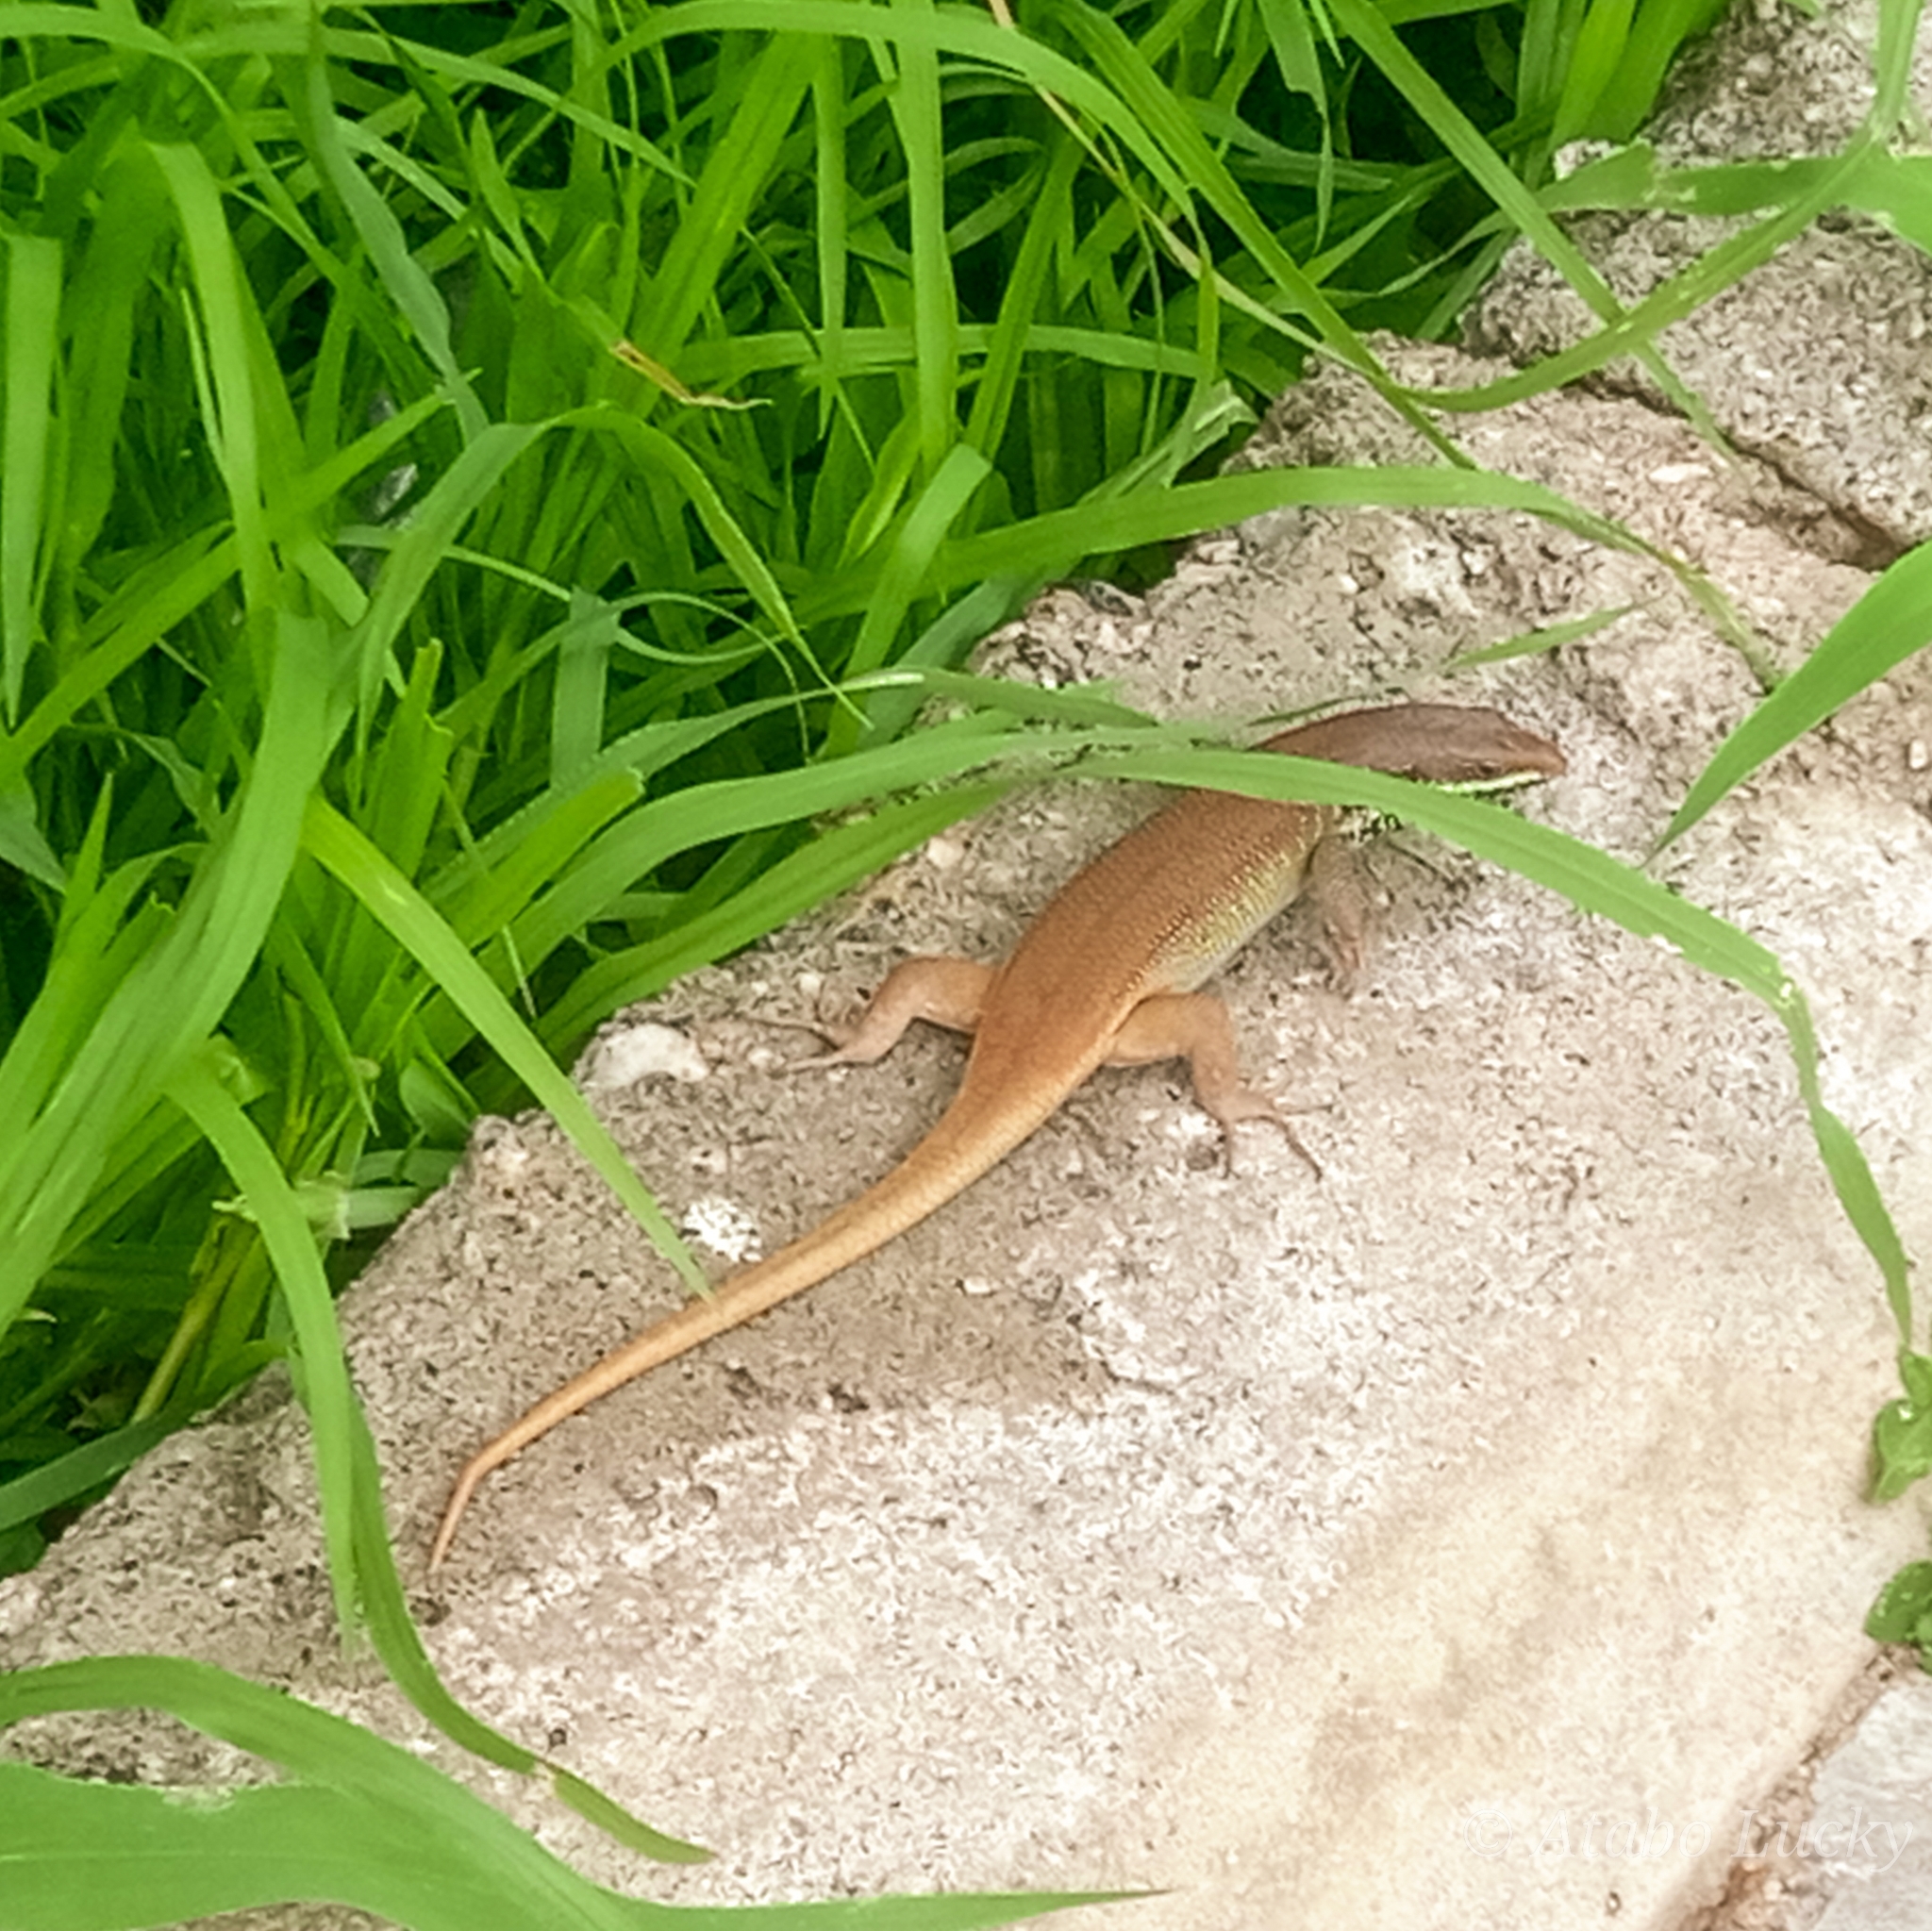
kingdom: Animalia
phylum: Chordata
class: Squamata
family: Scincidae
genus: Trachylepis
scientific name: Trachylepis quinquetaeniata
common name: African five-lined skink
